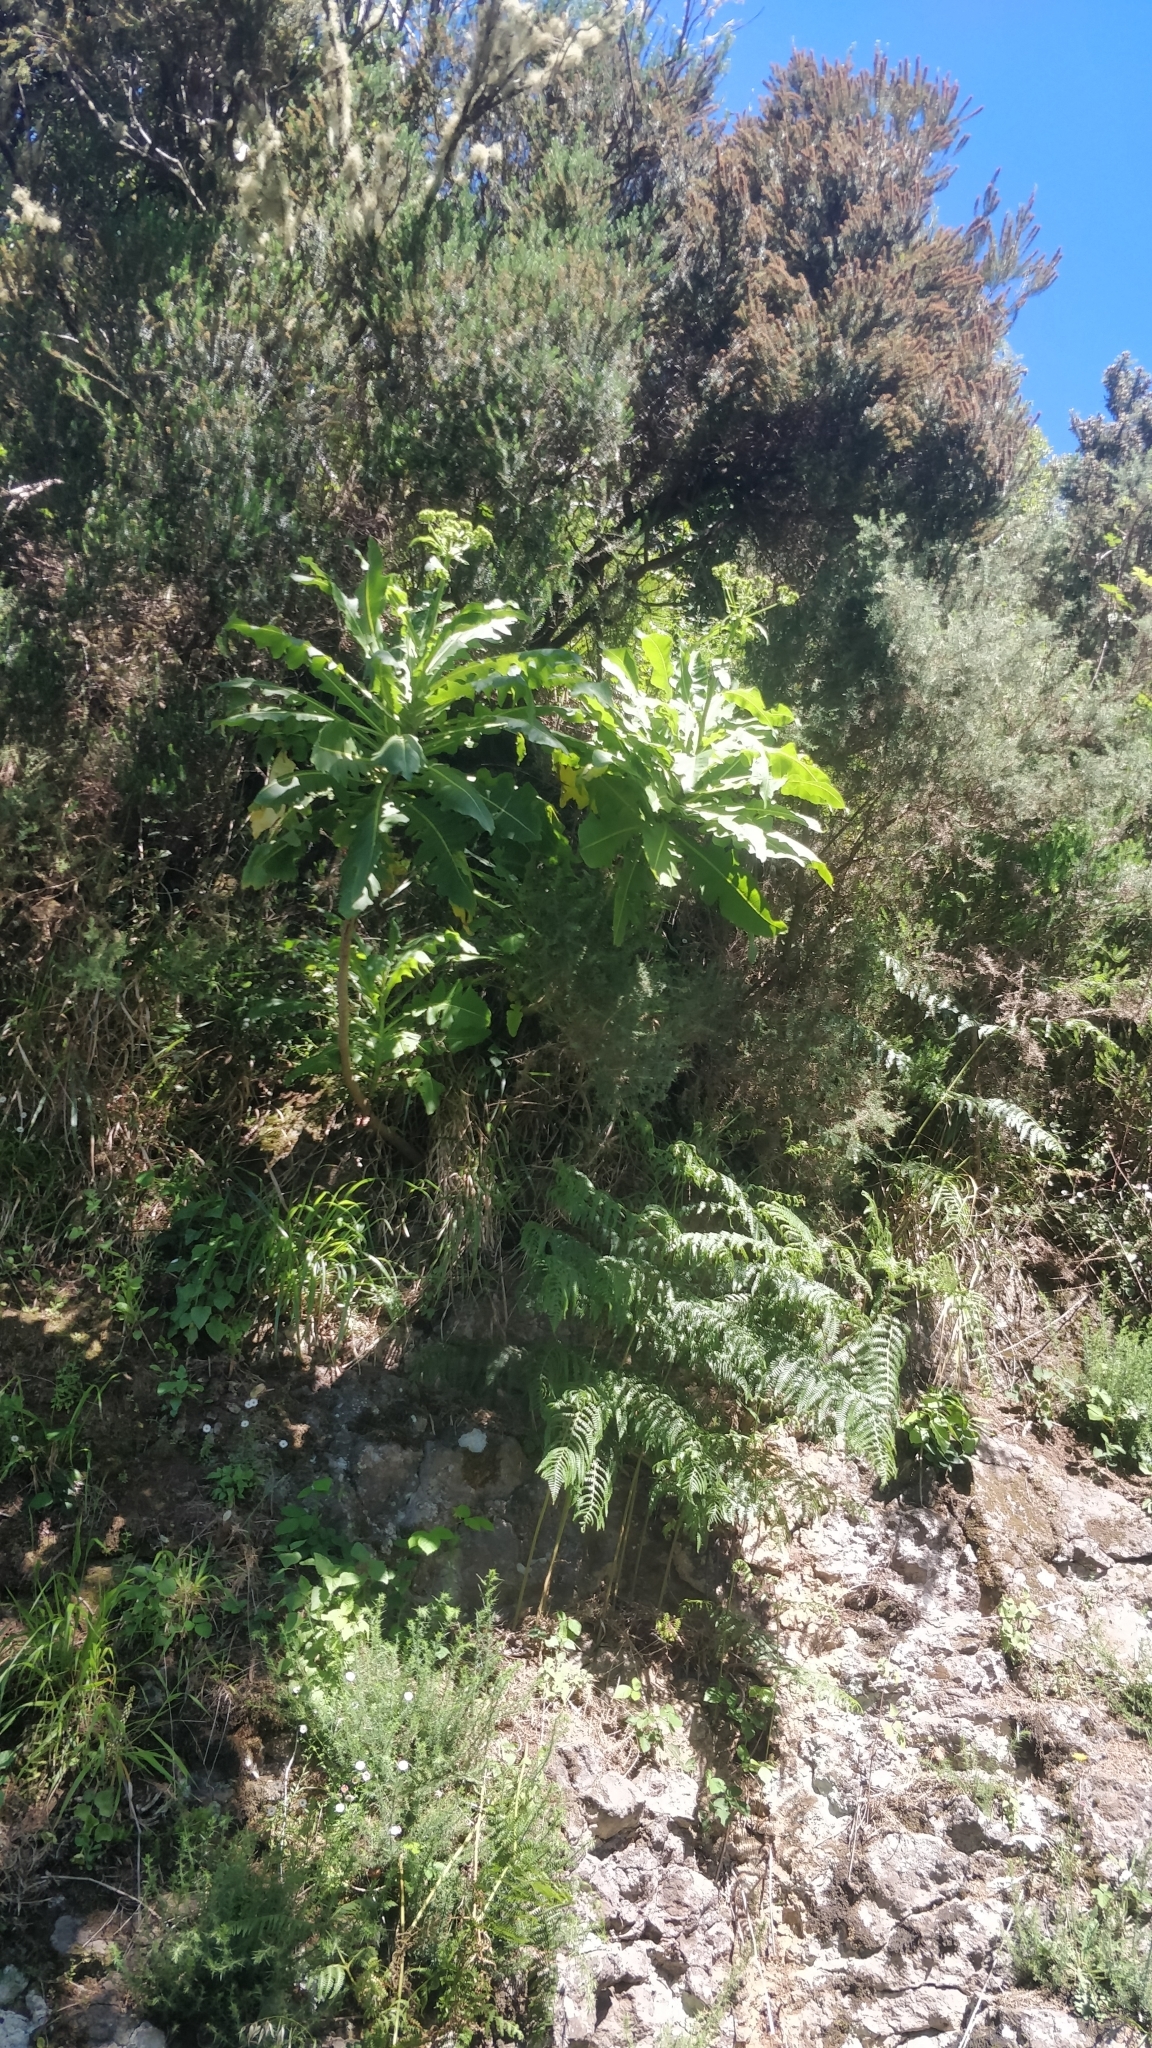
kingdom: Plantae
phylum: Tracheophyta
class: Magnoliopsida
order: Asterales
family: Asteraceae
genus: Sonchus
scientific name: Sonchus fruticosus
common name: Shrubby sow-thistle
